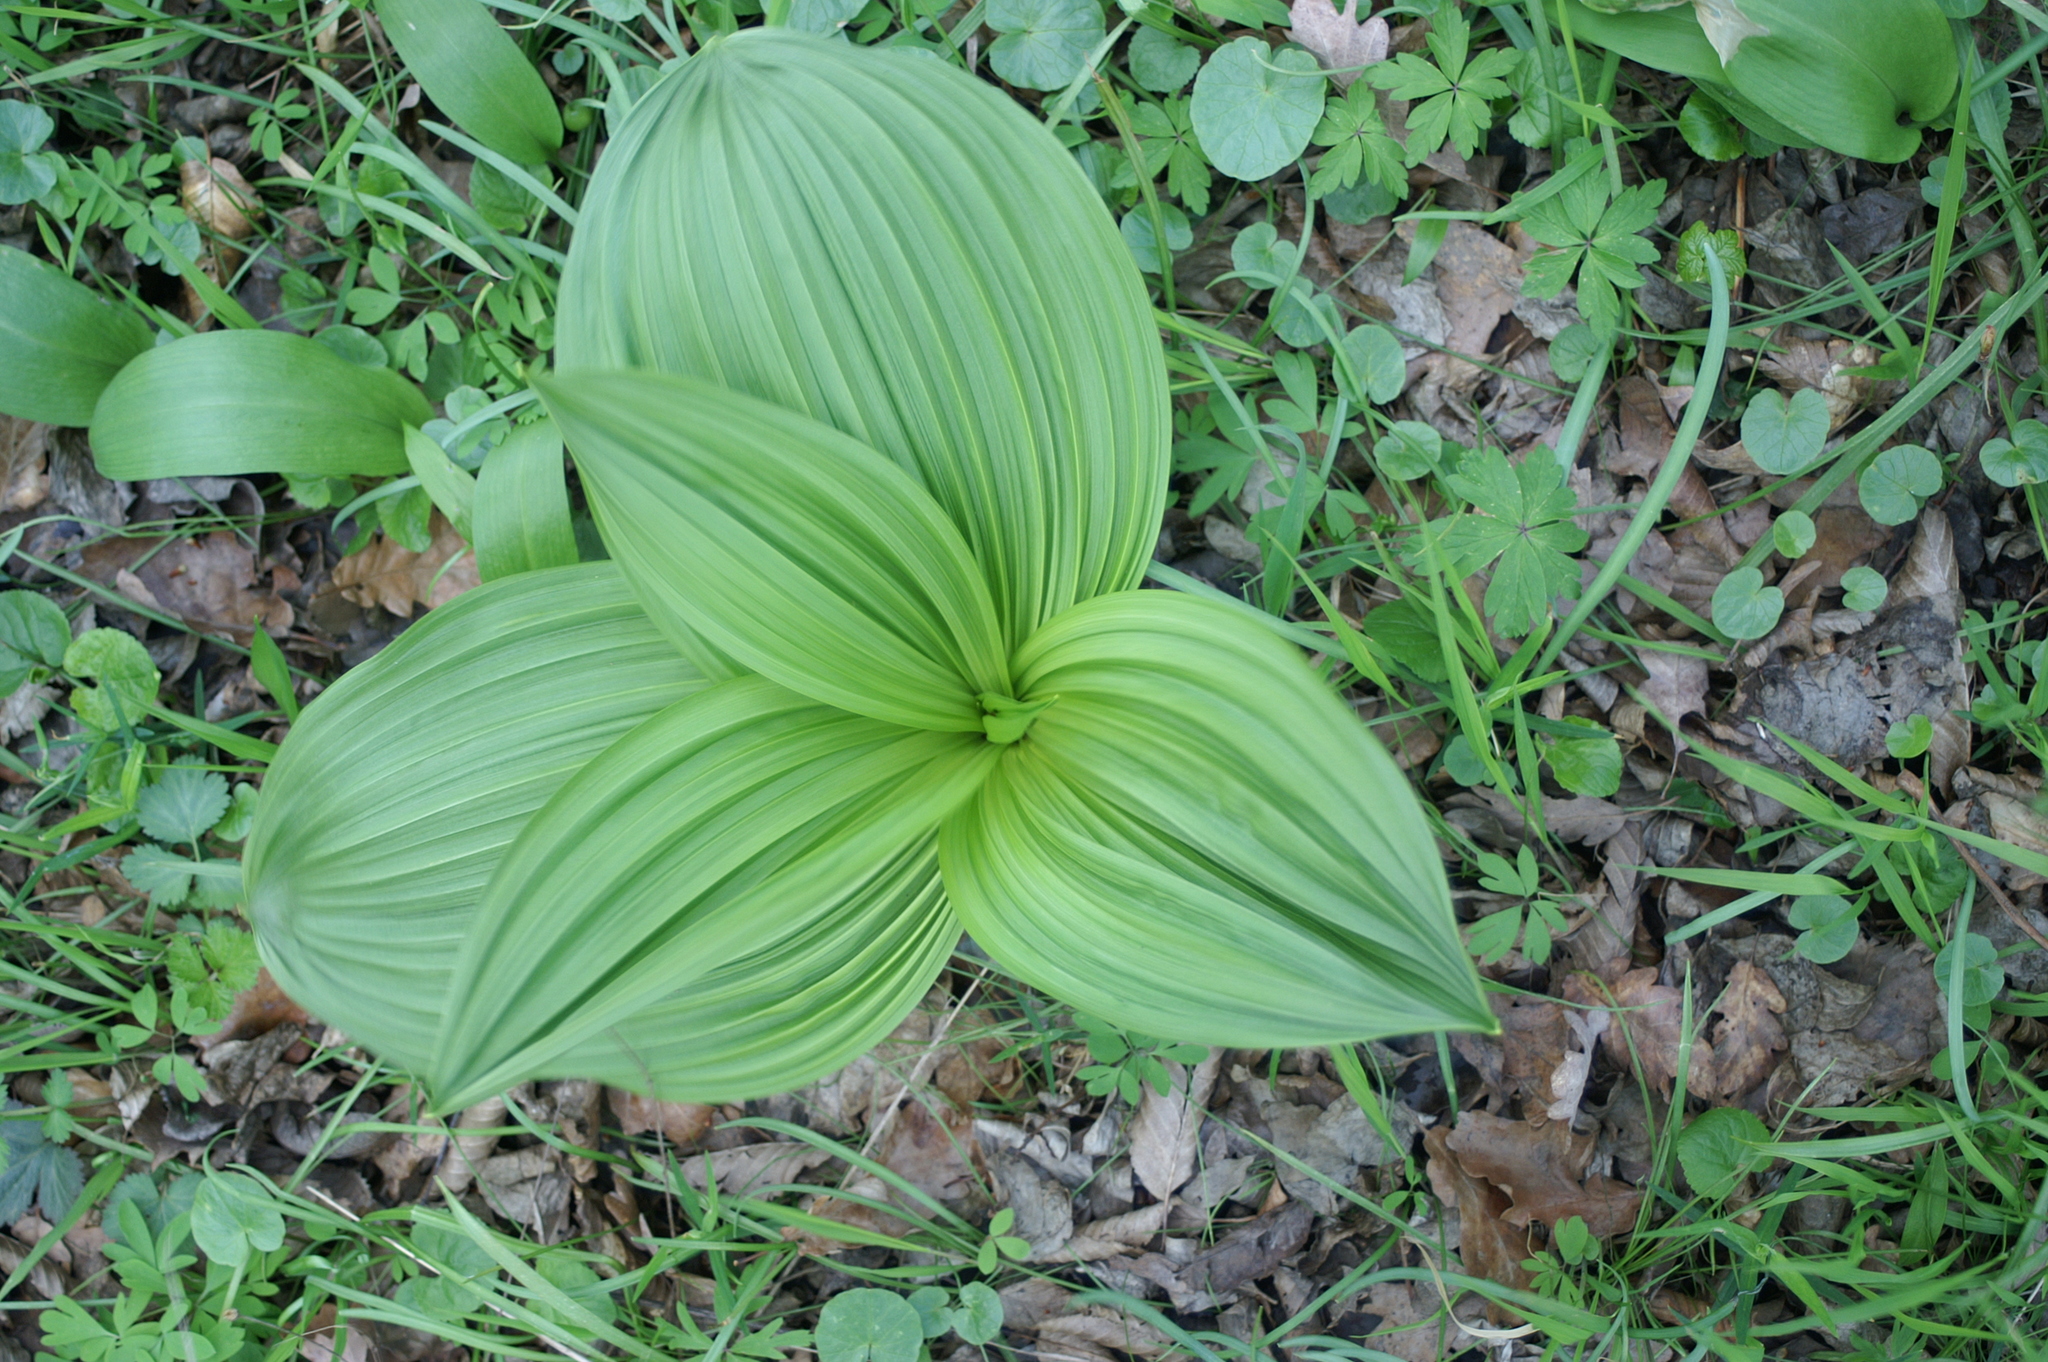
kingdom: Plantae
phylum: Tracheophyta
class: Liliopsida
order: Liliales
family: Melanthiaceae
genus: Veratrum
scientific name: Veratrum nigrum
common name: Black veratrum
